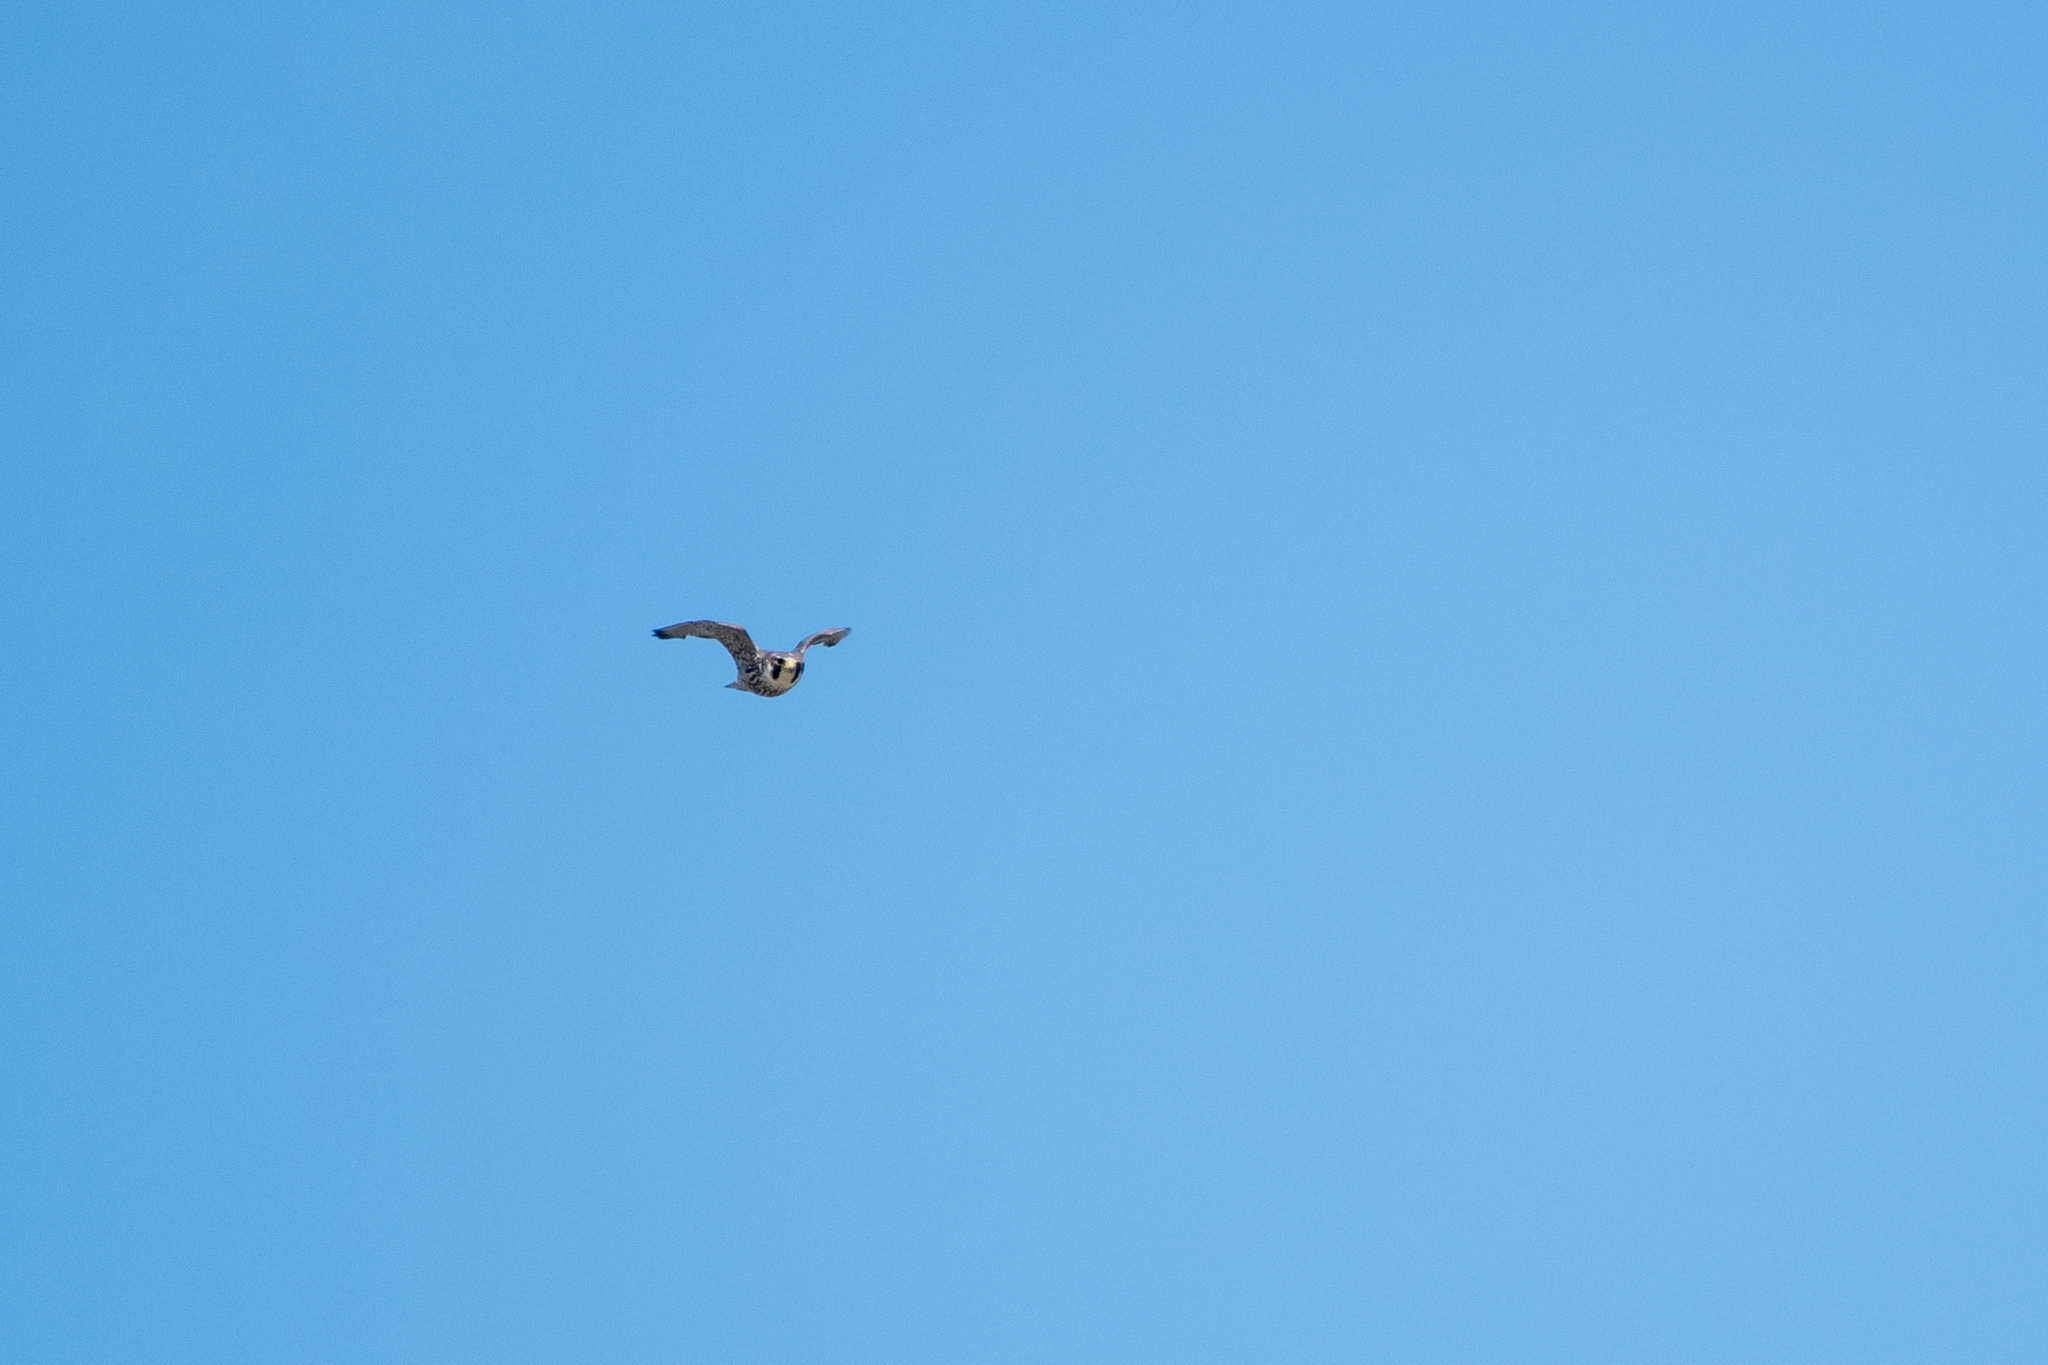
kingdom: Animalia
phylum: Chordata
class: Aves
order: Falconiformes
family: Falconidae
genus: Falco
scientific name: Falco peregrinus
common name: Peregrine falcon
